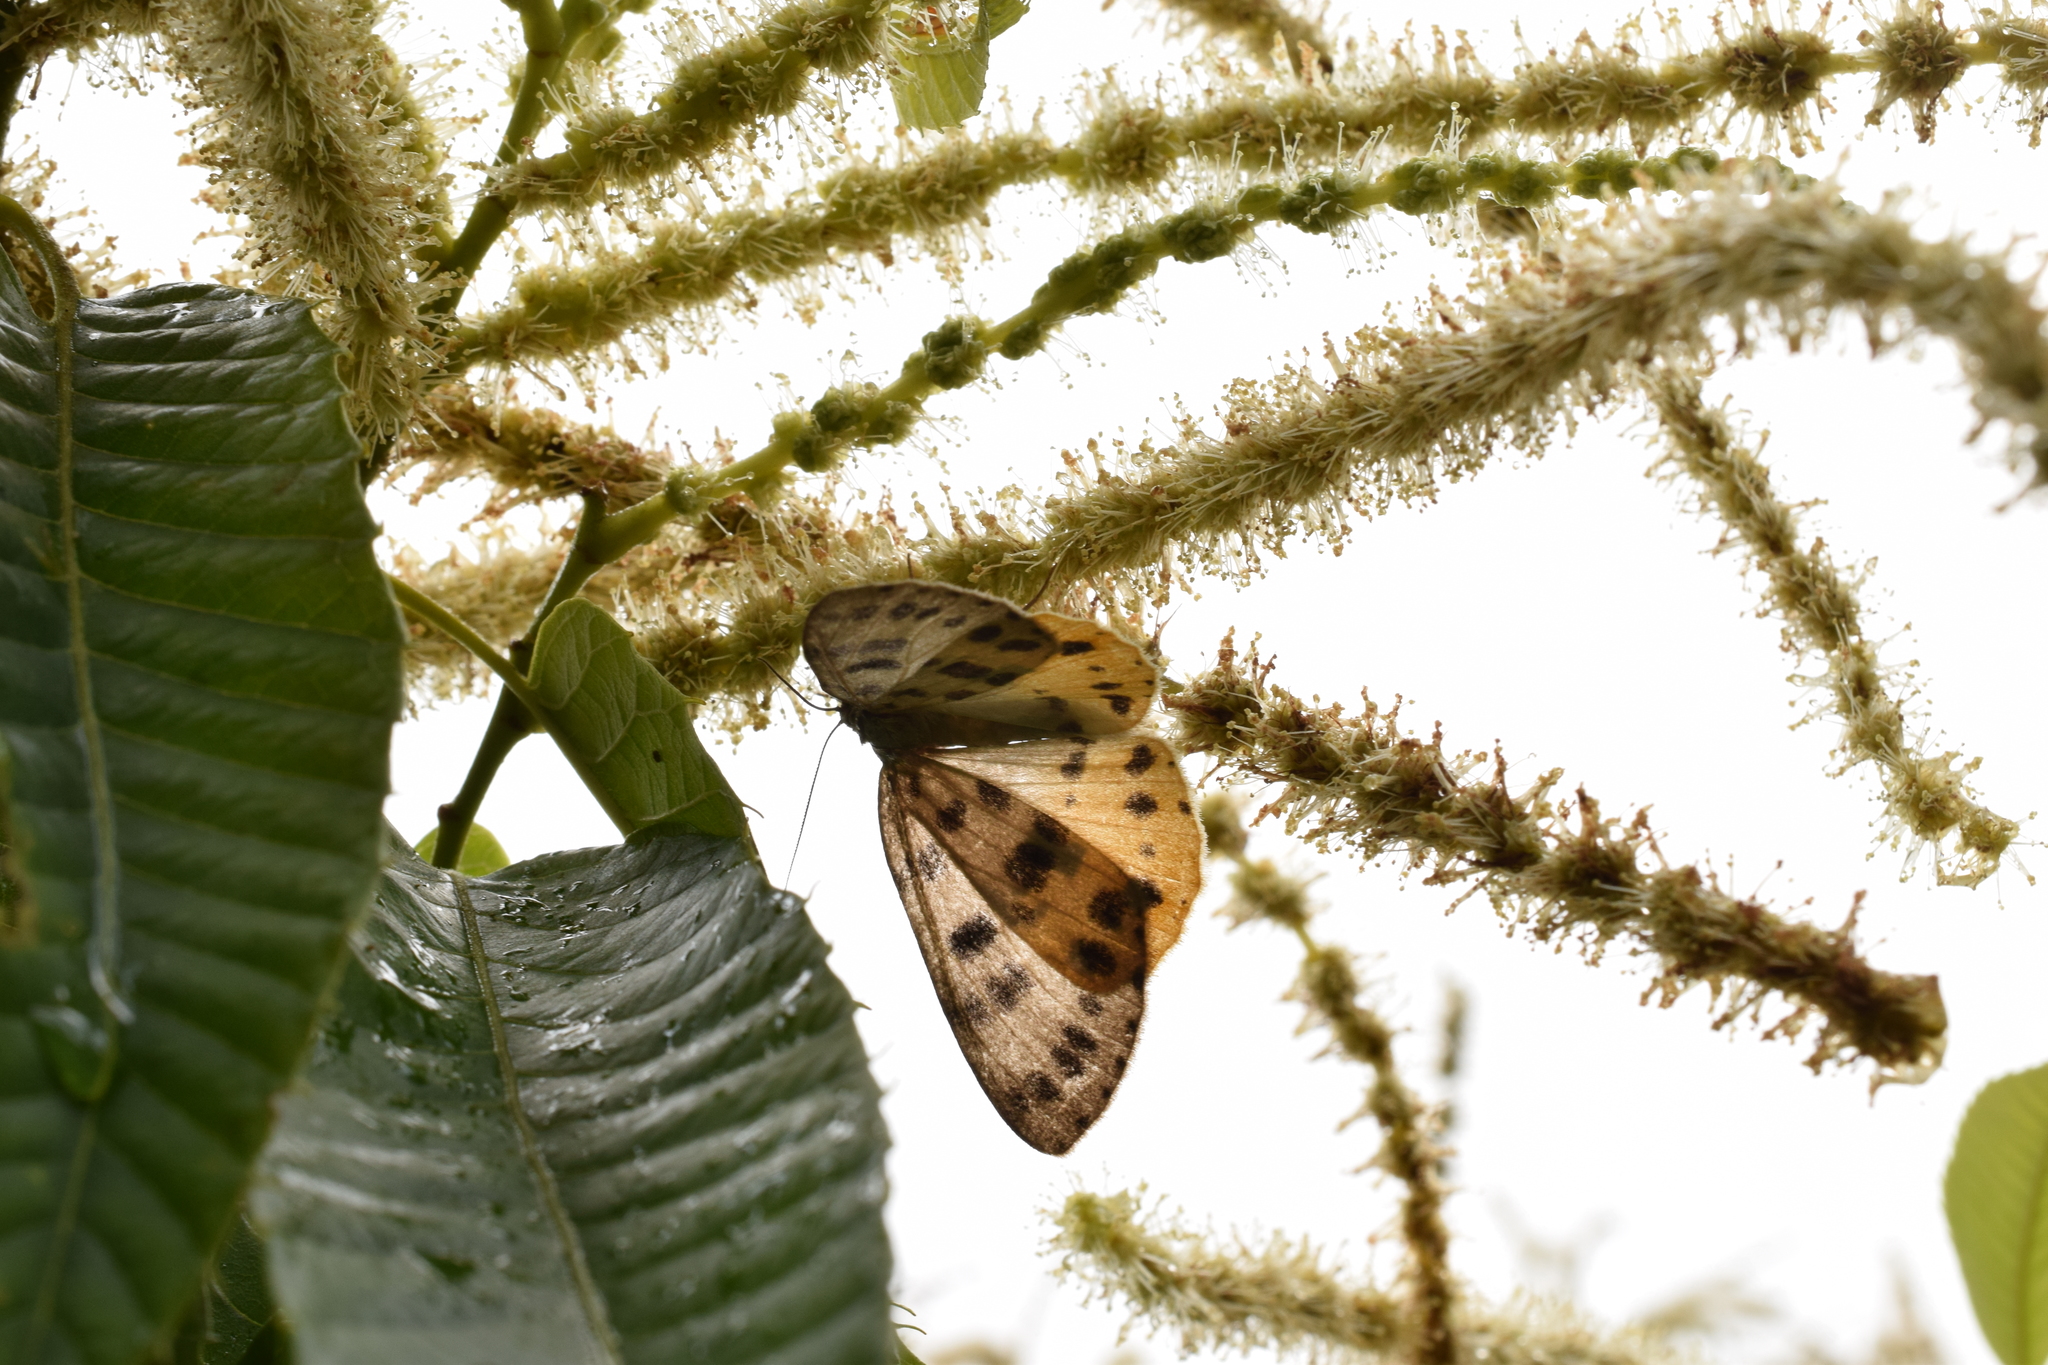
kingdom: Animalia
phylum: Arthropoda
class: Insecta
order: Lepidoptera
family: Geometridae
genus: Arichanna
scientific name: Arichanna
